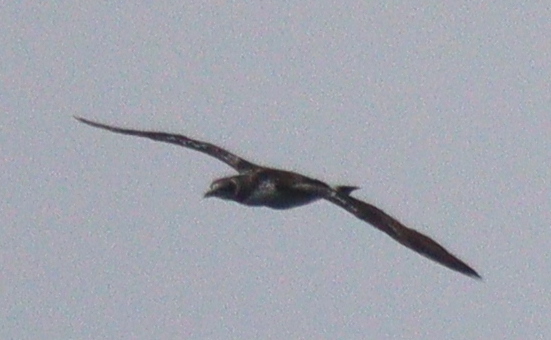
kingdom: Animalia
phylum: Chordata
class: Aves
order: Suliformes
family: Sulidae
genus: Morus
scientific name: Morus bassanus
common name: Northern gannet
